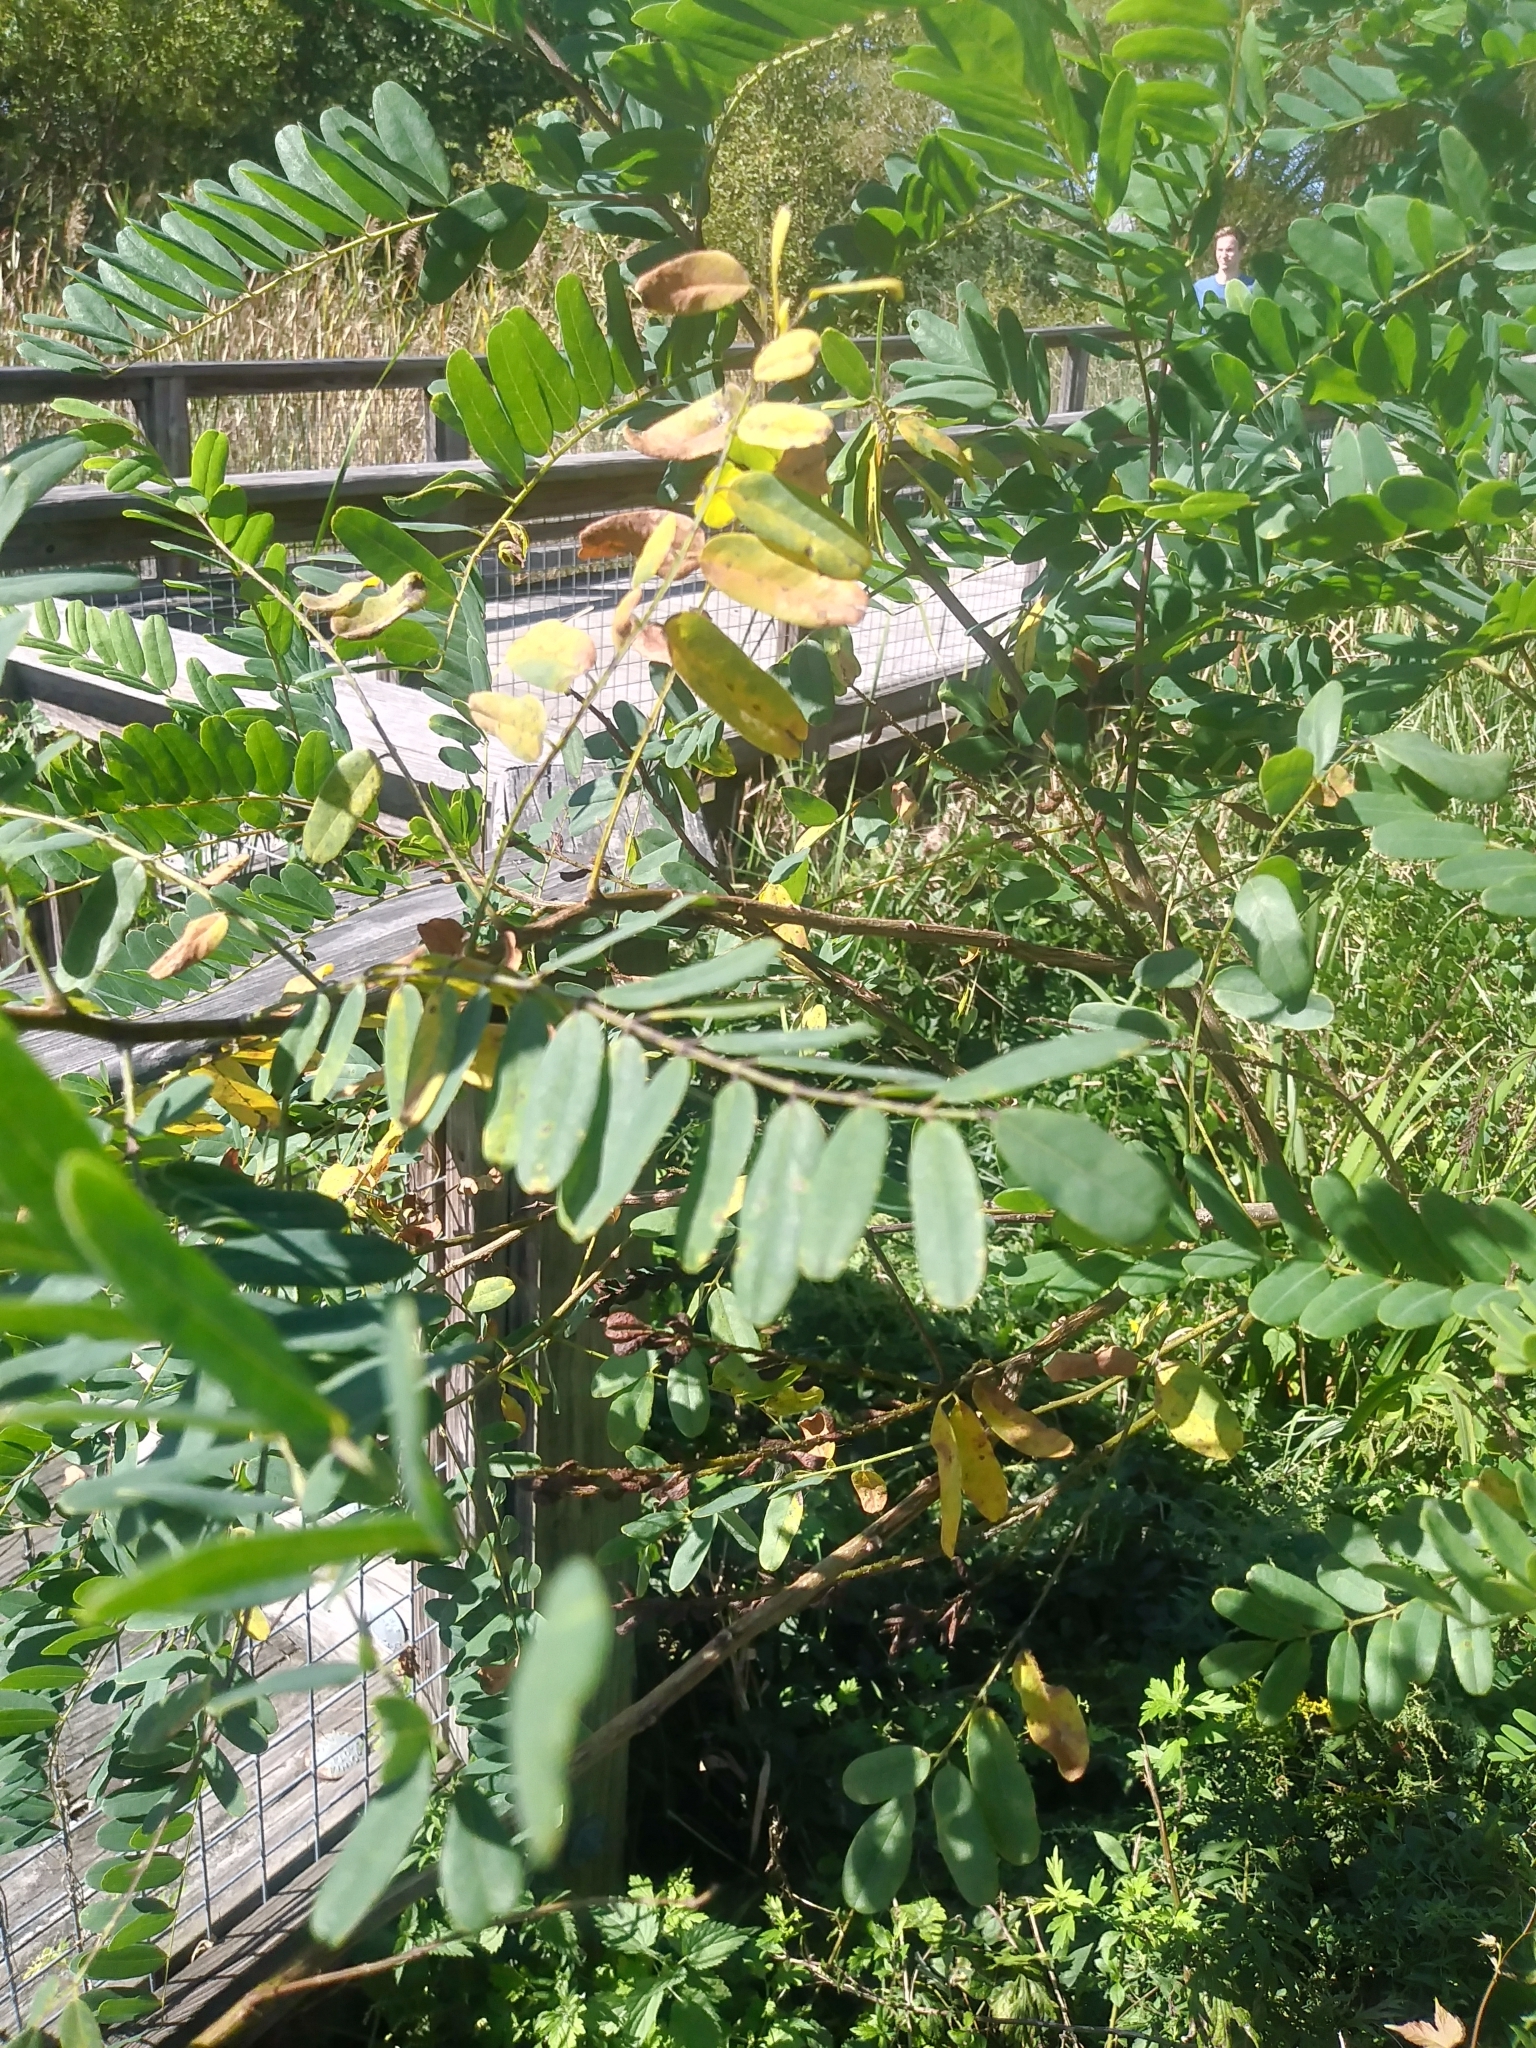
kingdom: Plantae
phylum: Tracheophyta
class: Magnoliopsida
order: Fabales
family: Fabaceae
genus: Amorpha
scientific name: Amorpha fruticosa
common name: False indigo
